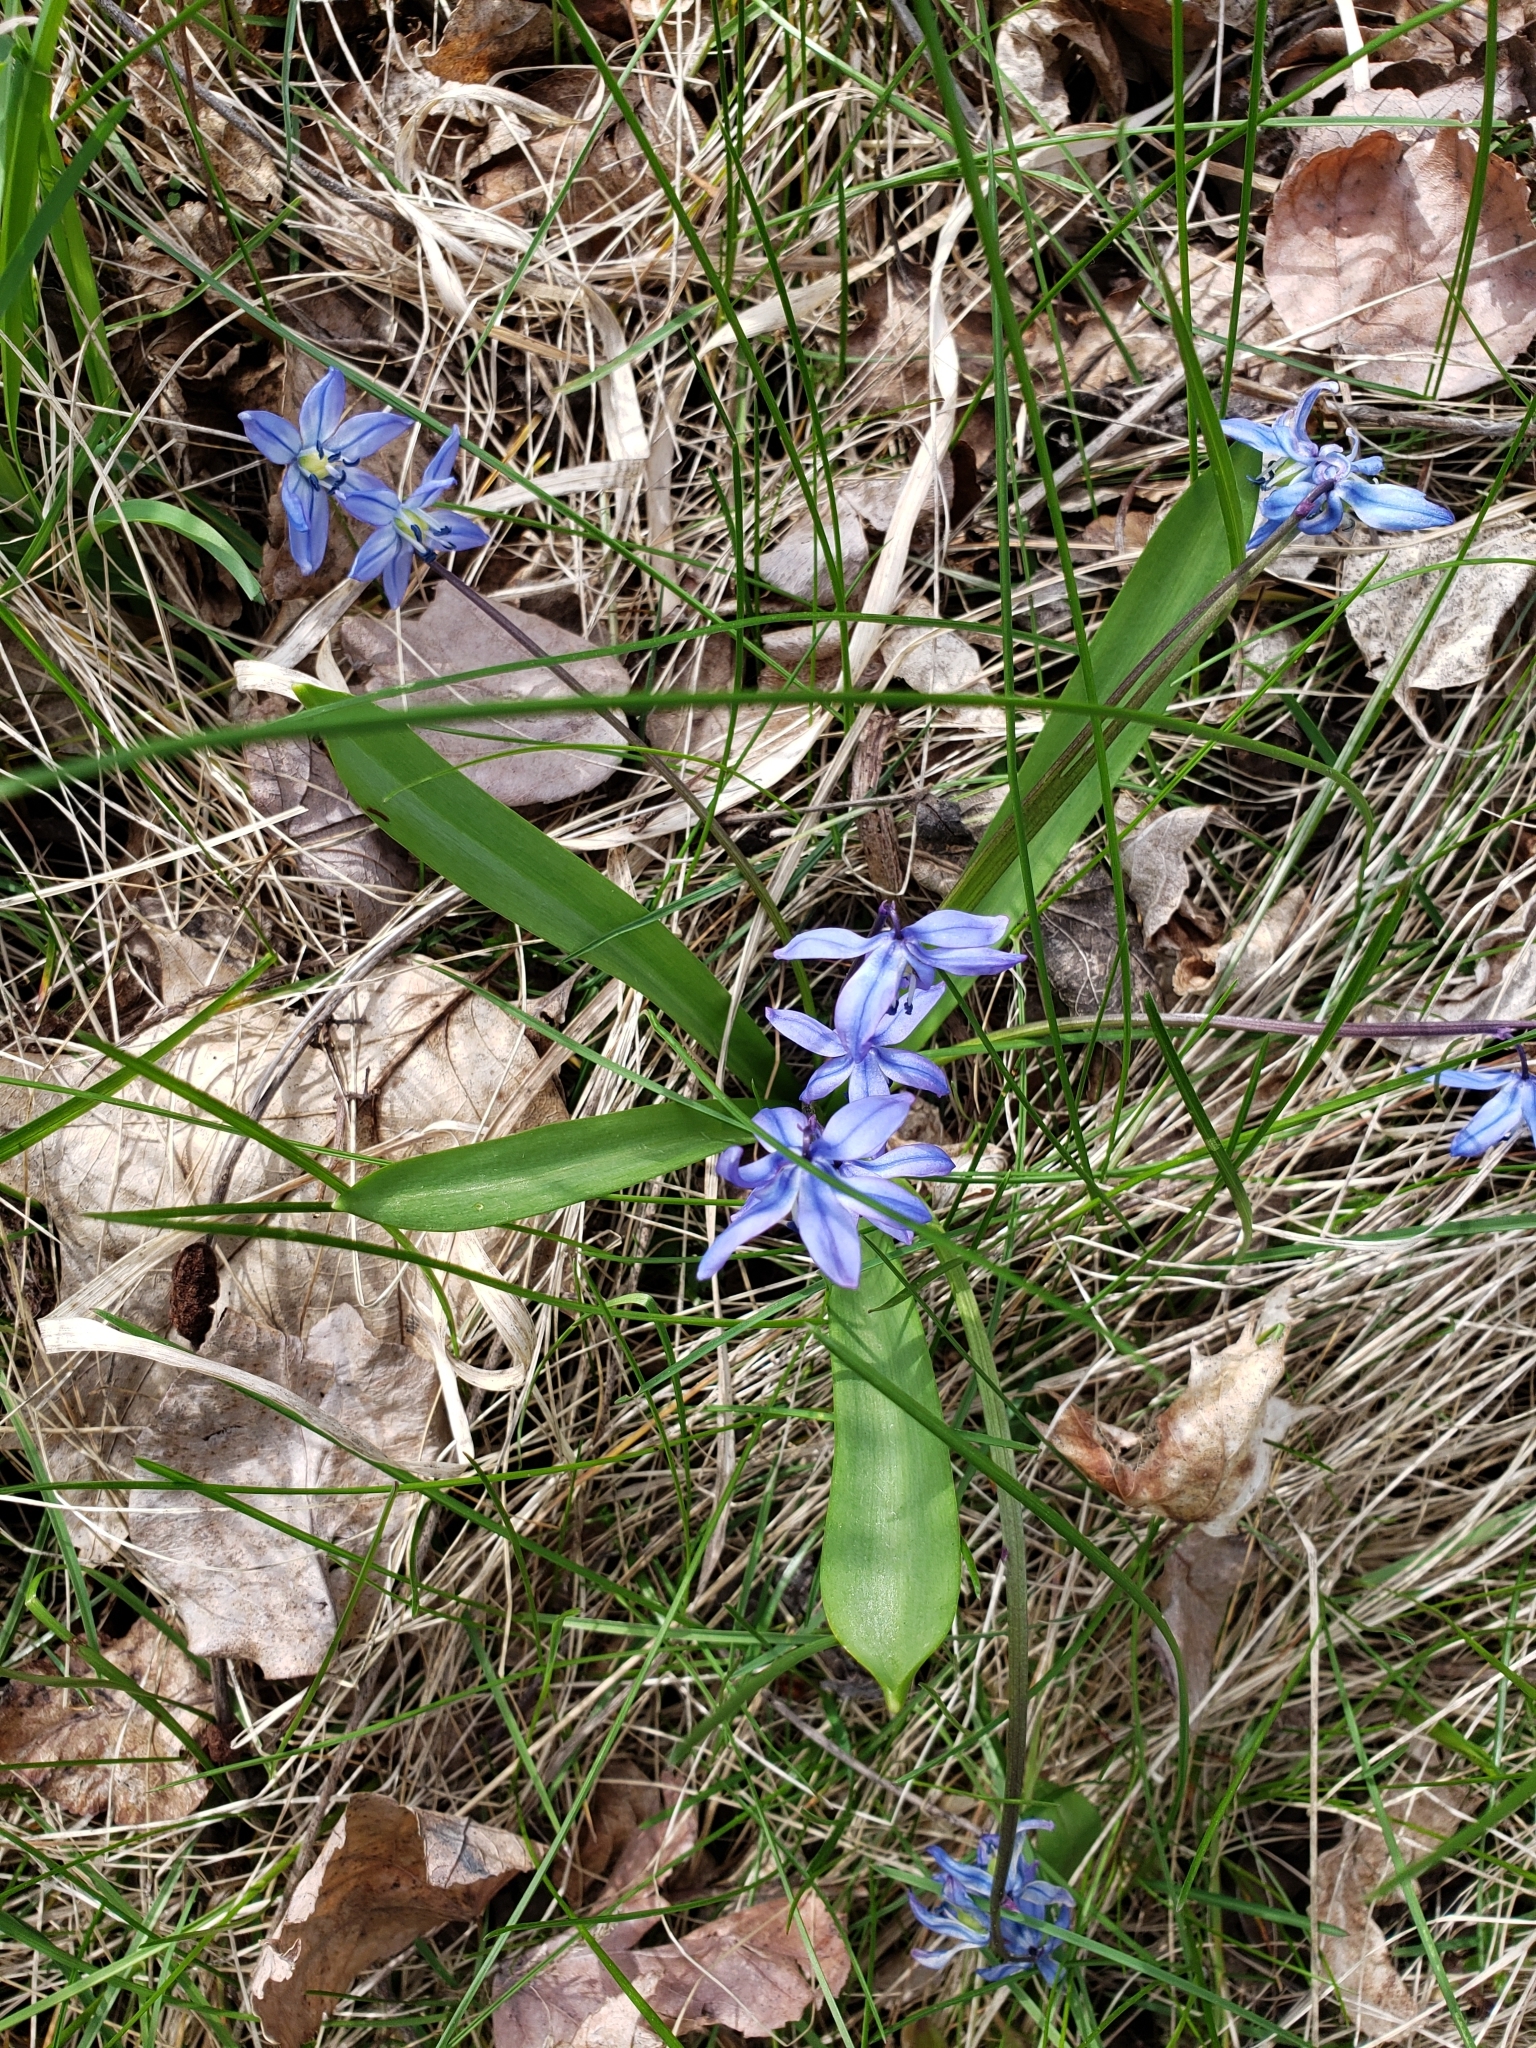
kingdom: Plantae
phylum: Tracheophyta
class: Liliopsida
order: Asparagales
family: Asparagaceae
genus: Scilla
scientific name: Scilla siberica
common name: Siberian squill
